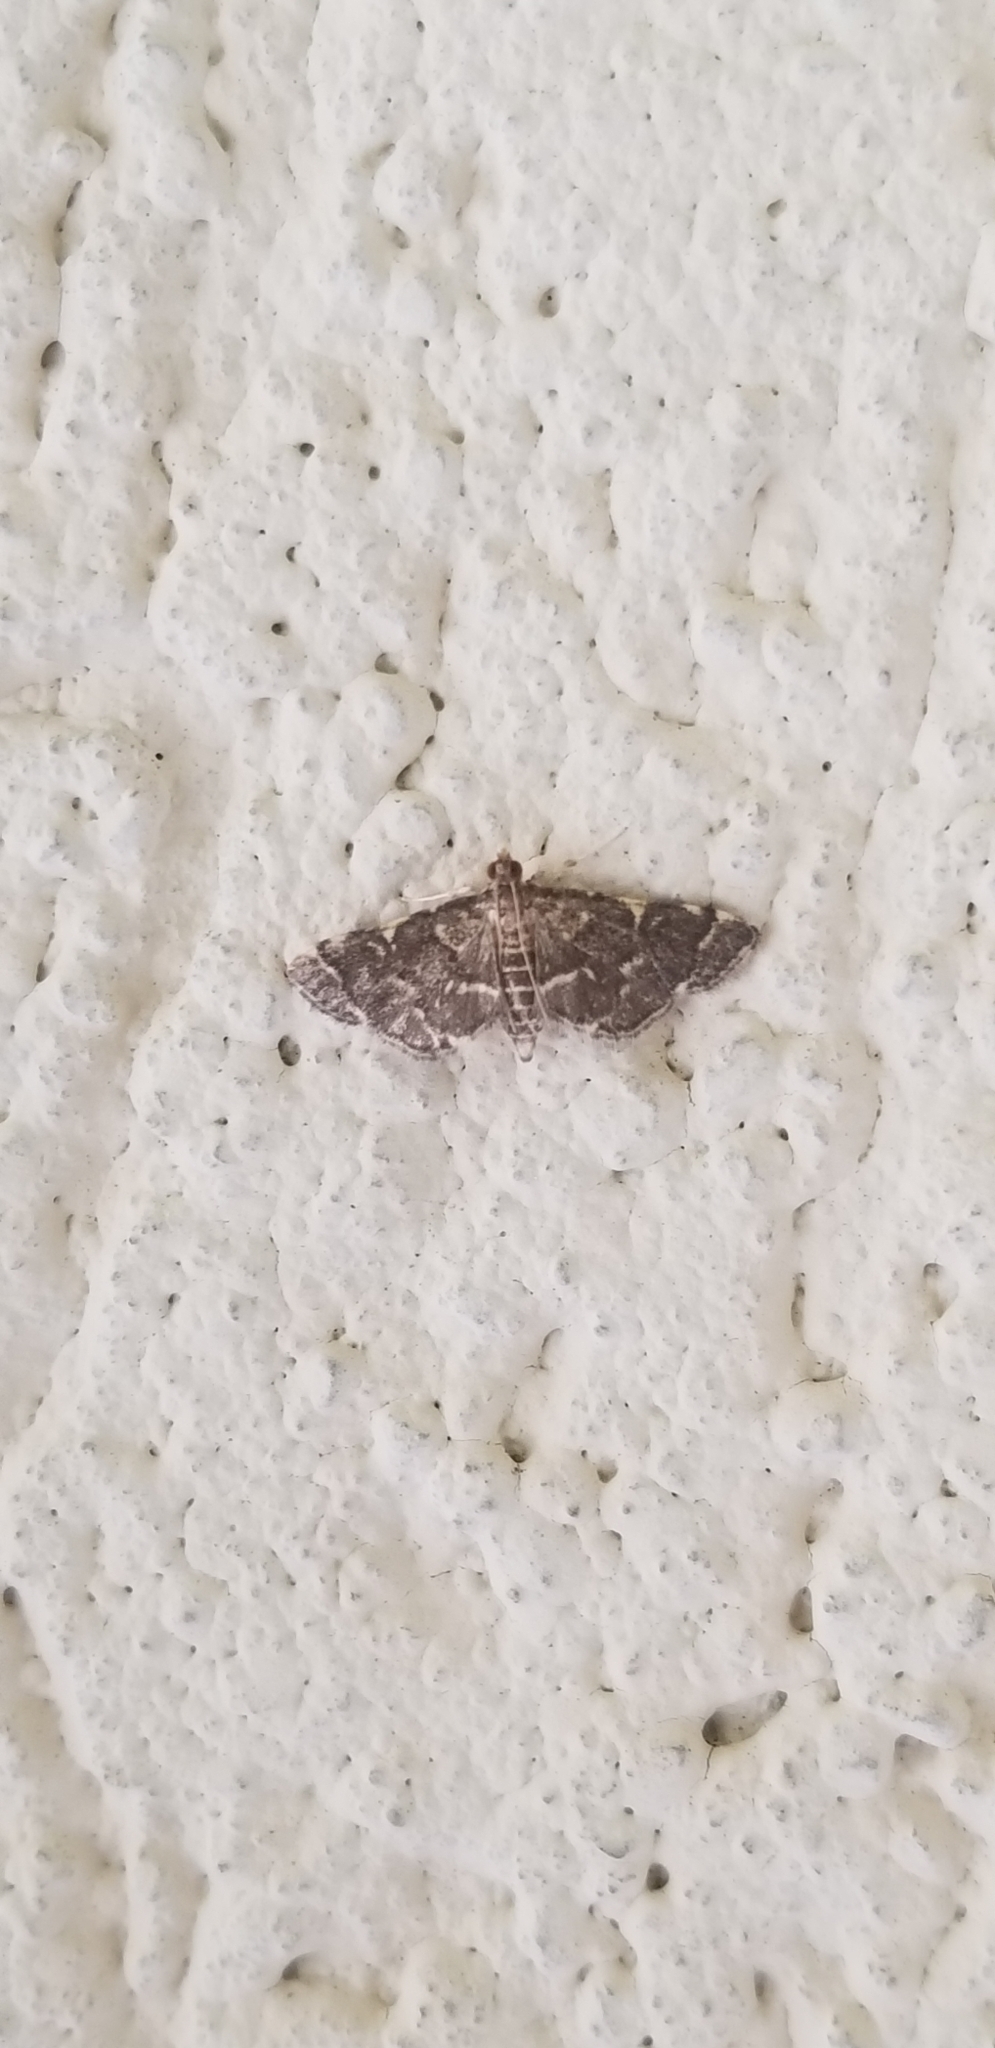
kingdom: Animalia
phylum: Arthropoda
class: Insecta
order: Lepidoptera
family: Crambidae
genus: Anageshna
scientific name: Anageshna primordialis
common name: Yellow-spotted webworm moth
